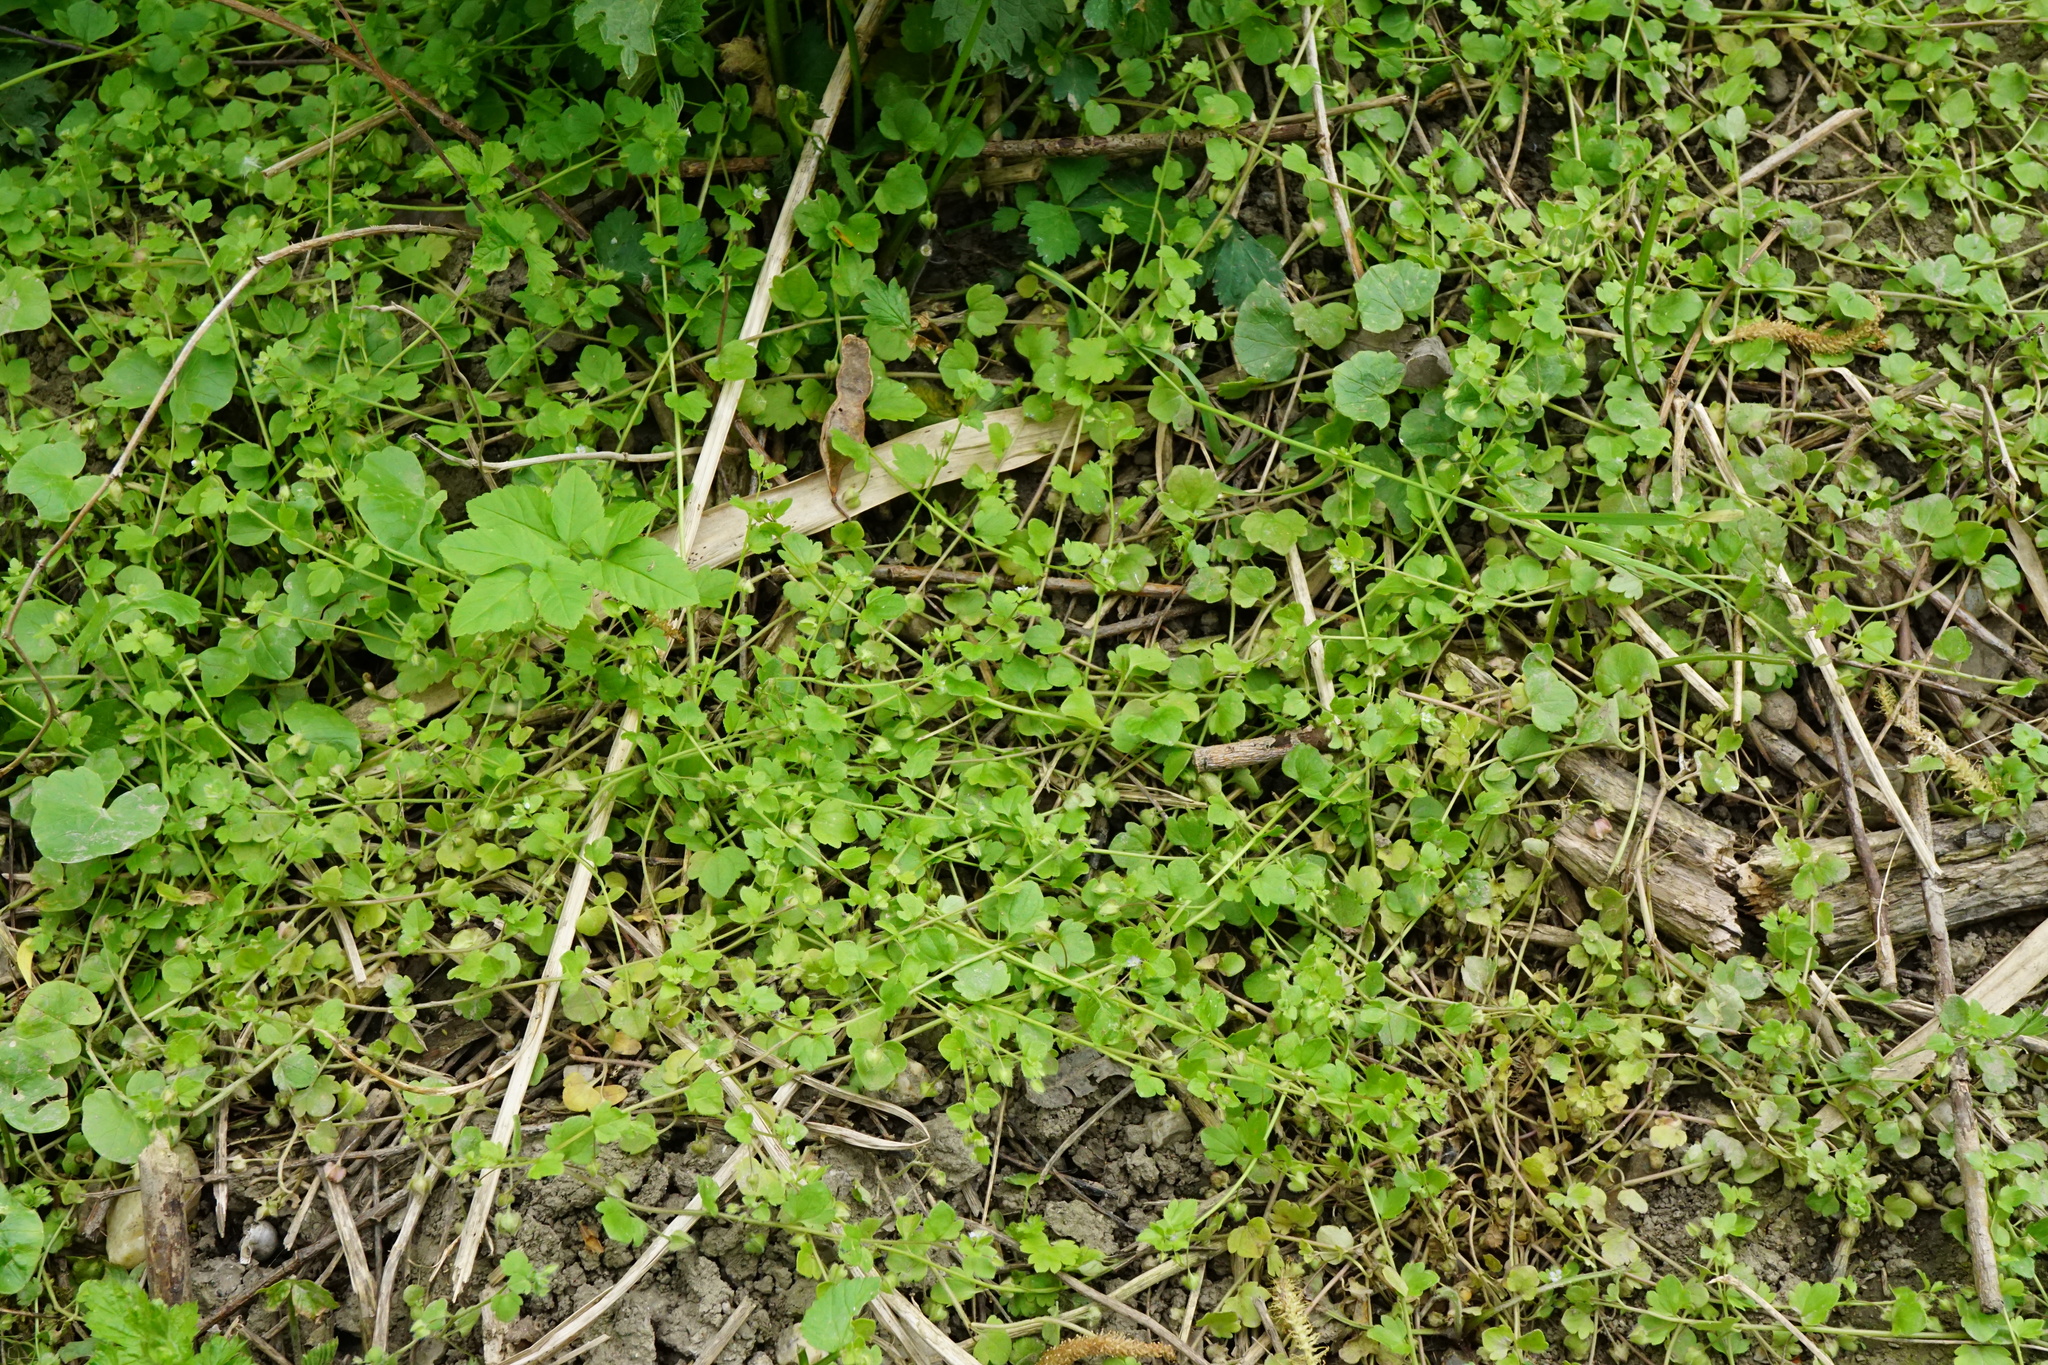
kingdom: Plantae
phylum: Tracheophyta
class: Magnoliopsida
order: Lamiales
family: Plantaginaceae
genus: Veronica
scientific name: Veronica sublobata
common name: False ivy-leaved speedwell
